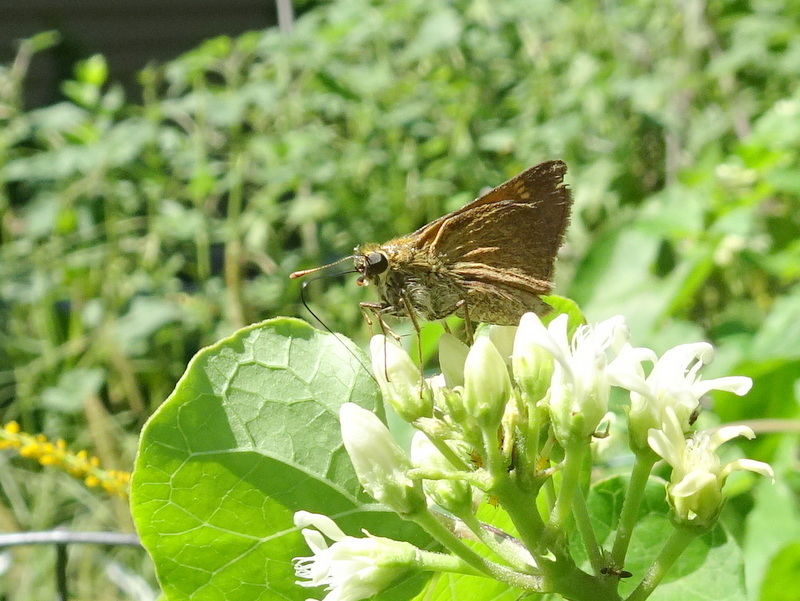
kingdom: Animalia
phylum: Arthropoda
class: Insecta
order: Lepidoptera
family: Hesperiidae
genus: Polites
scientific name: Polites themistocles
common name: Tawny-edged skipper
